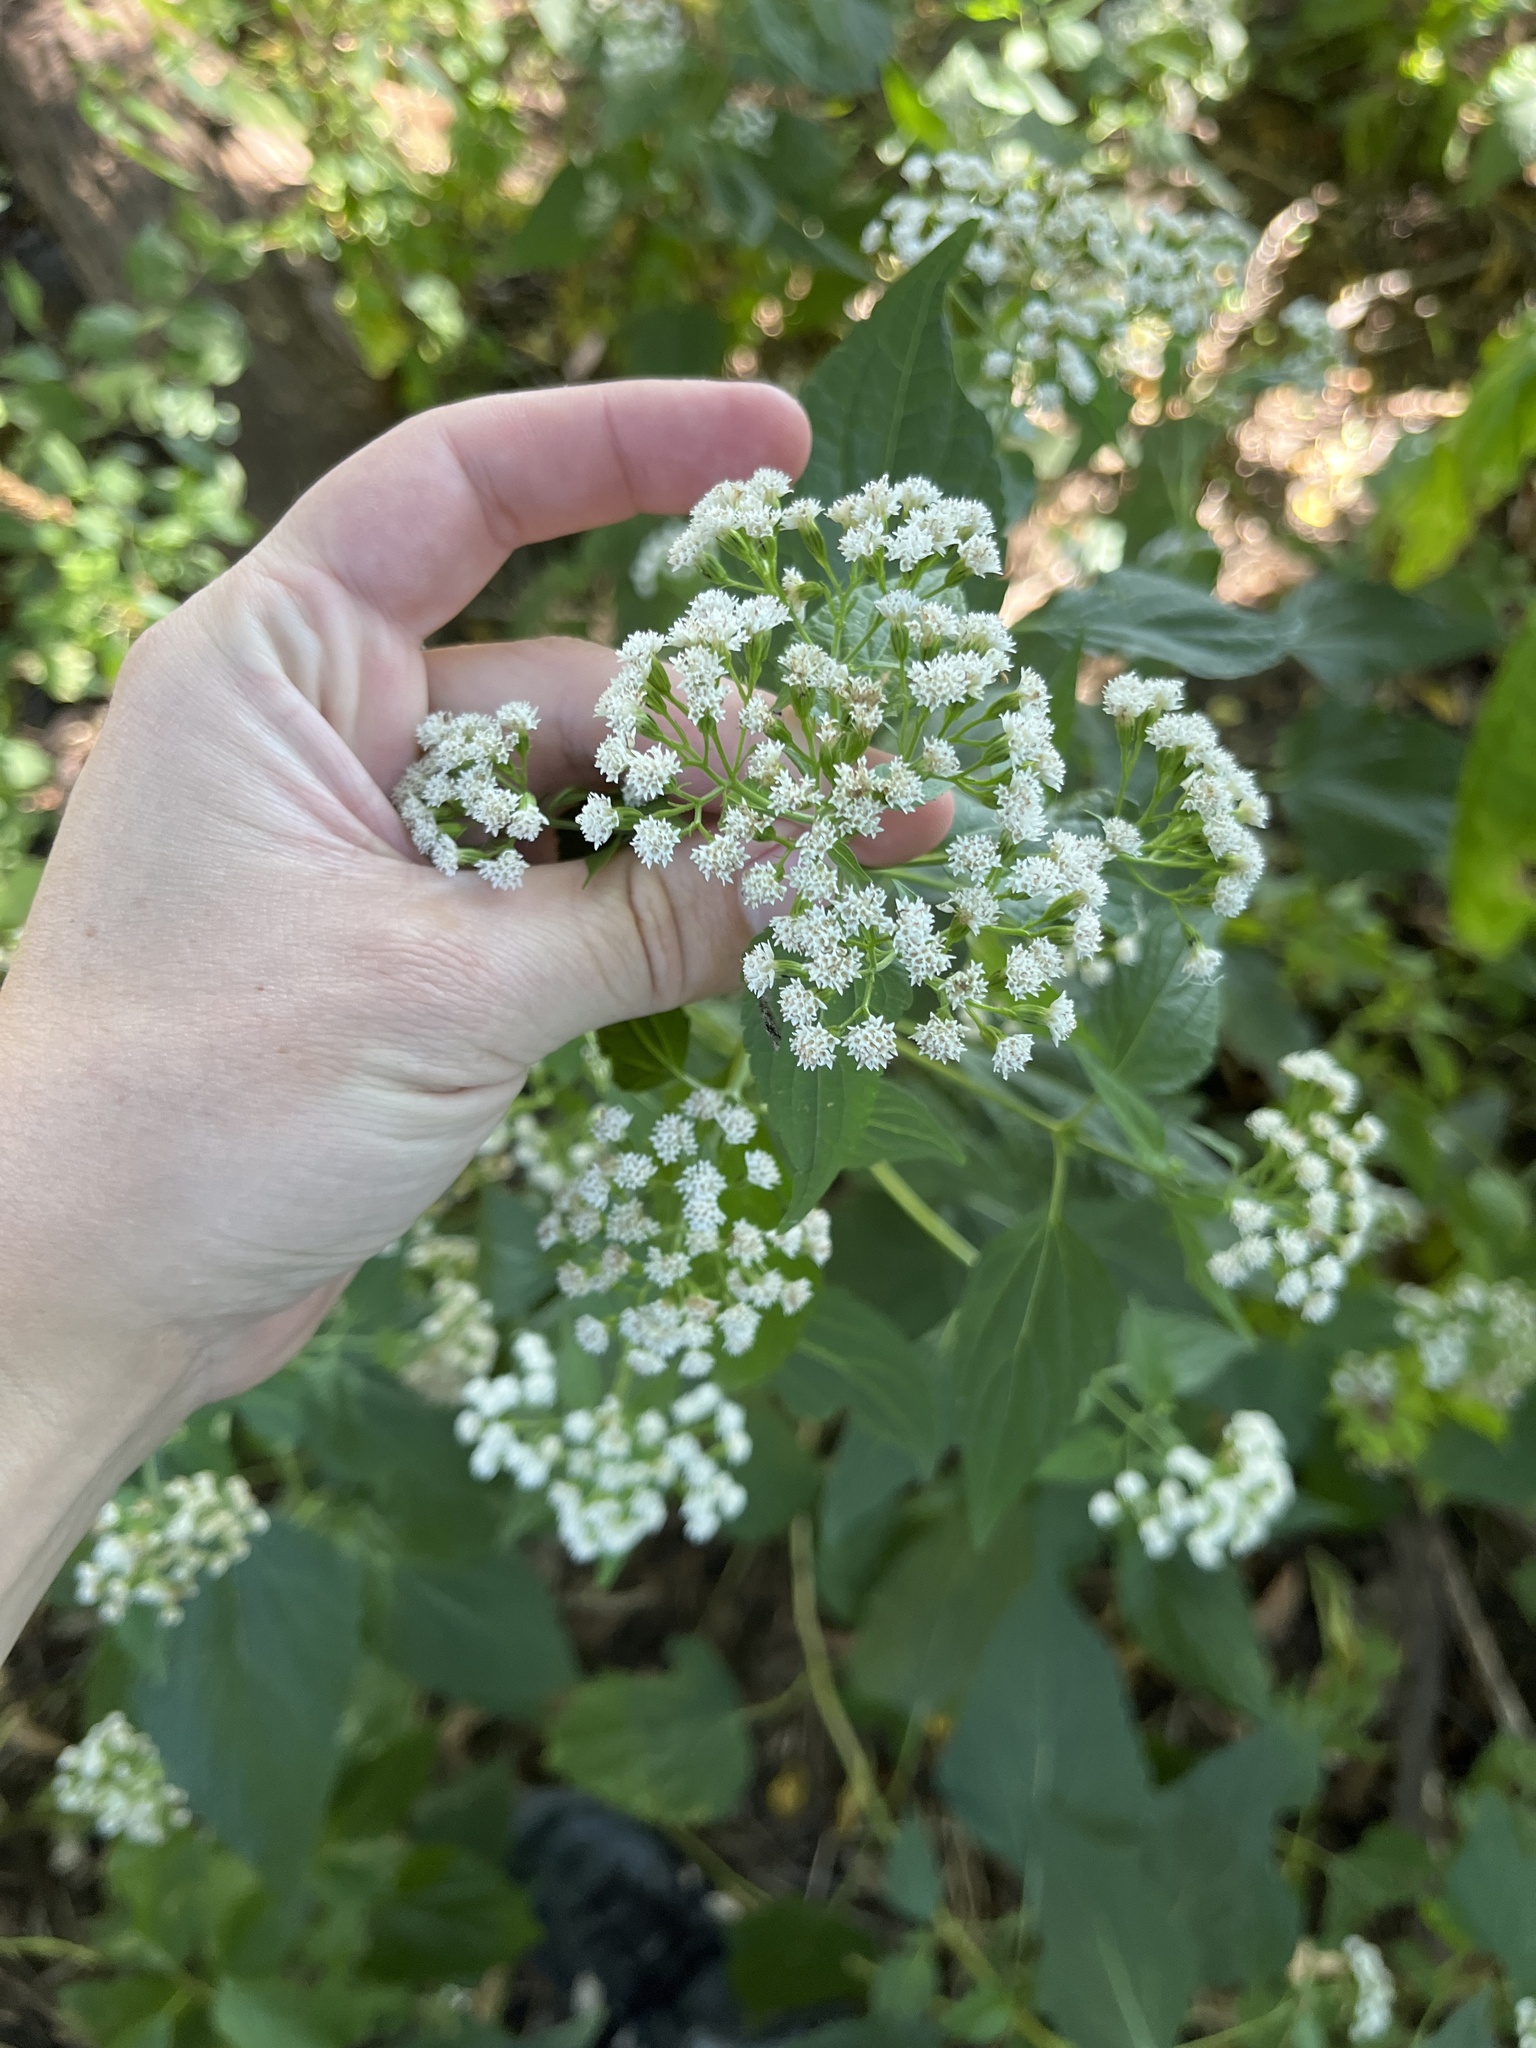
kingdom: Plantae
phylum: Tracheophyta
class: Magnoliopsida
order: Asterales
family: Asteraceae
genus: Ageratina
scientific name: Ageratina altissima
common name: White snakeroot
